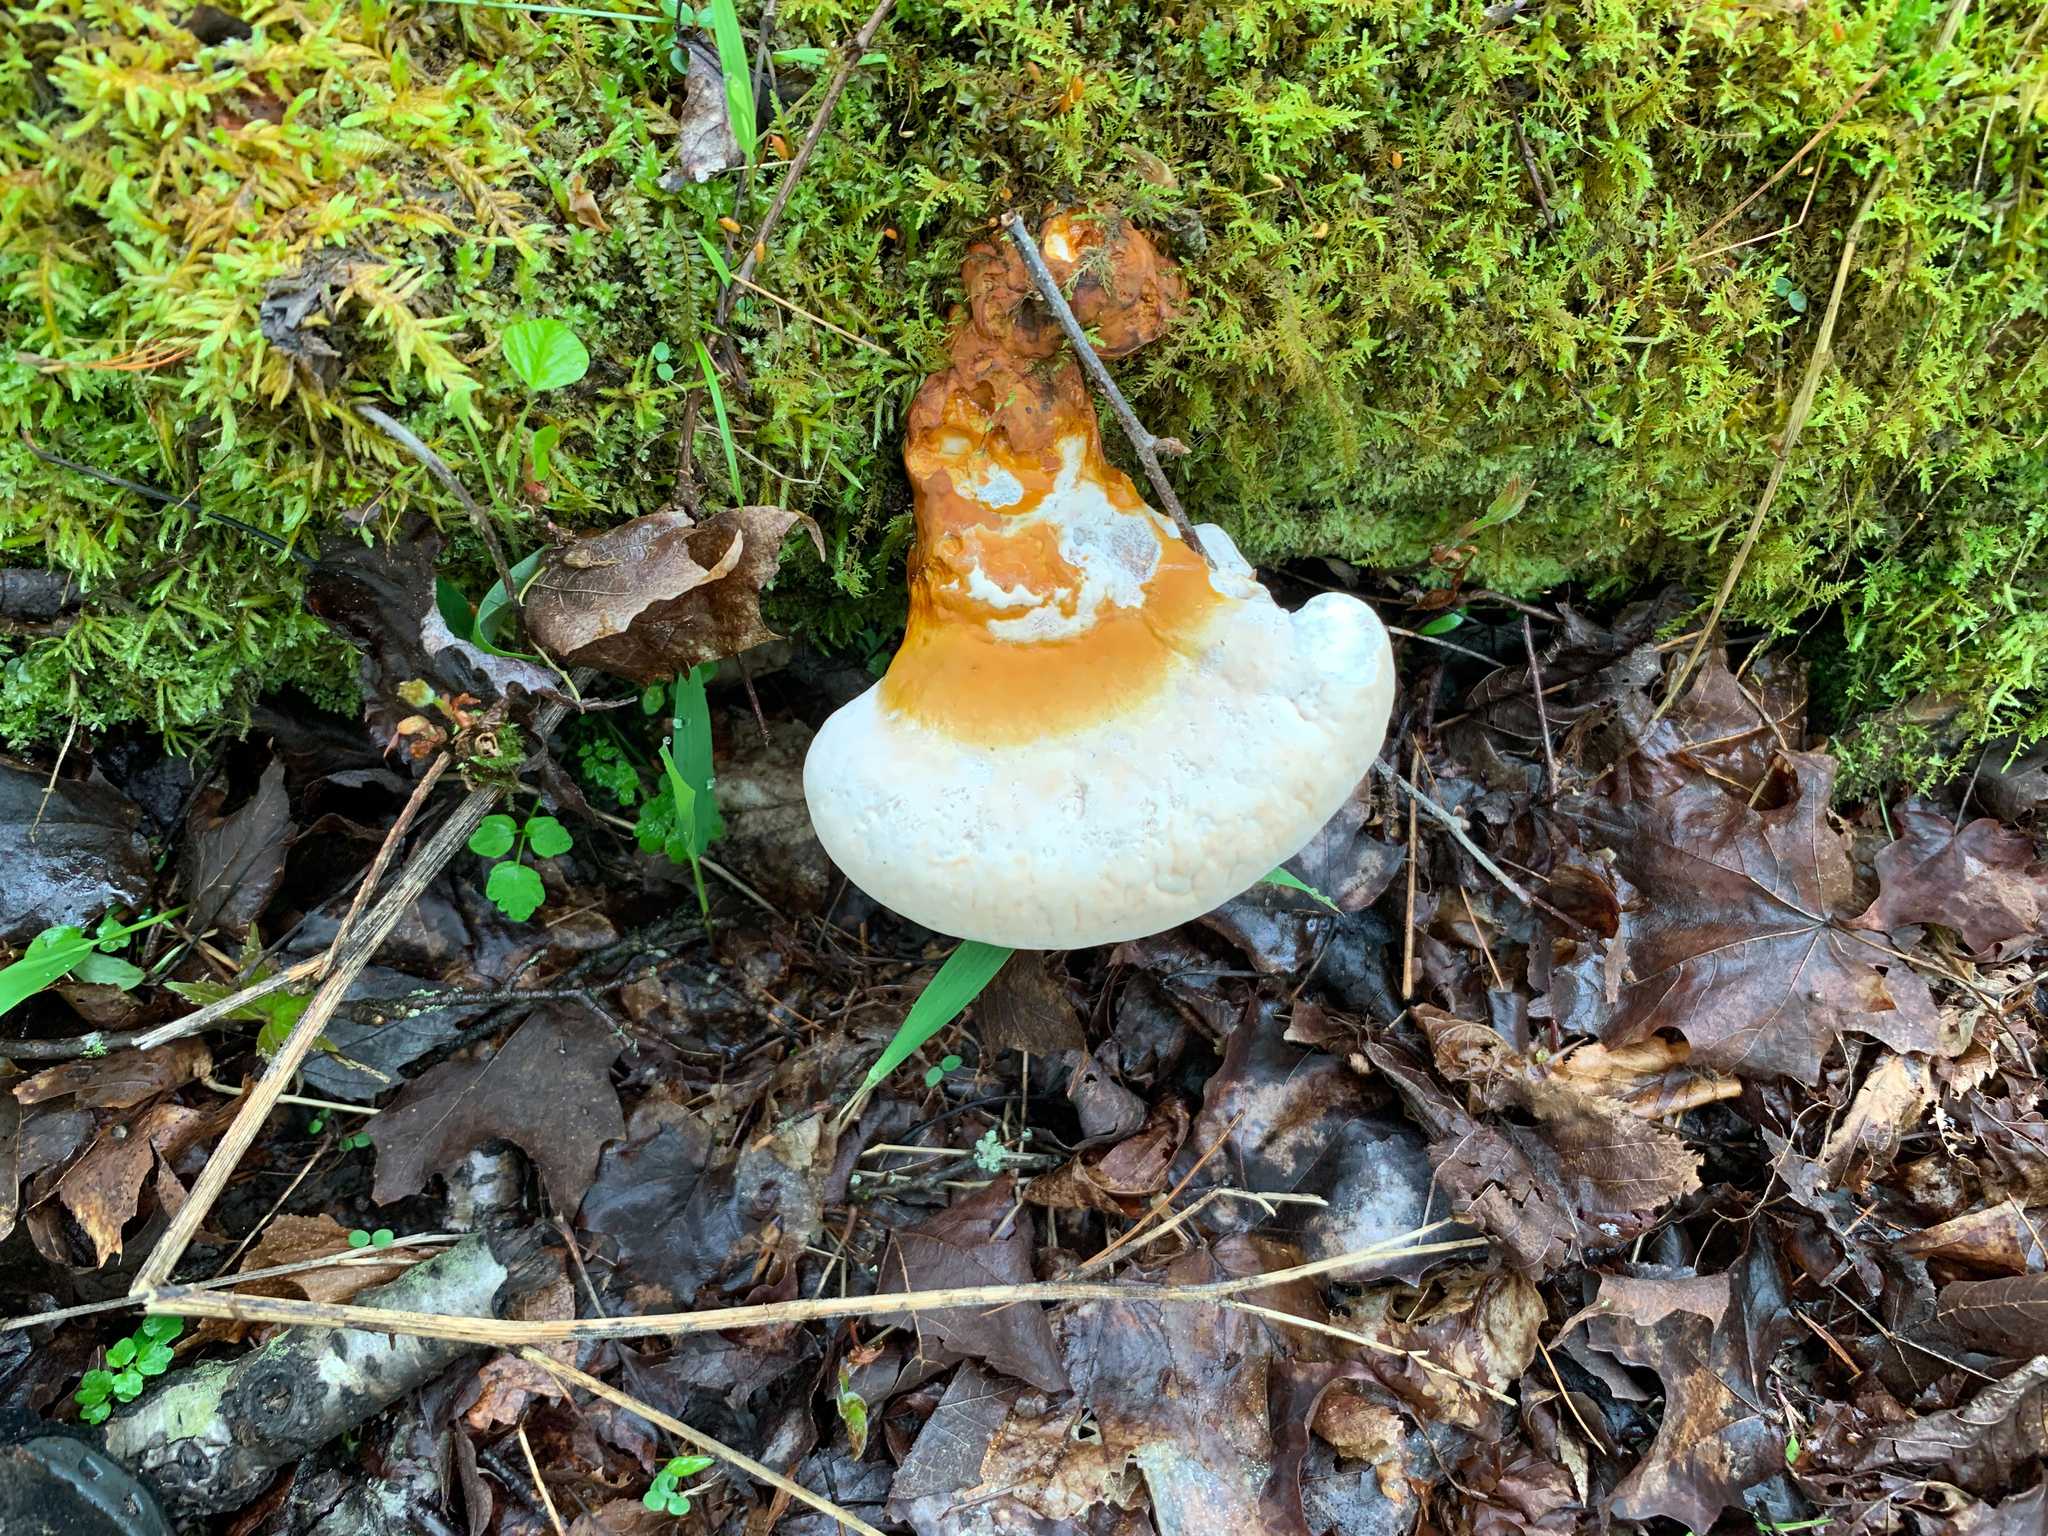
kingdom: Fungi
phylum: Basidiomycota
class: Agaricomycetes
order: Polyporales
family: Polyporaceae
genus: Ganoderma
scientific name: Ganoderma tsugae
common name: Hemlock varnish shelf
